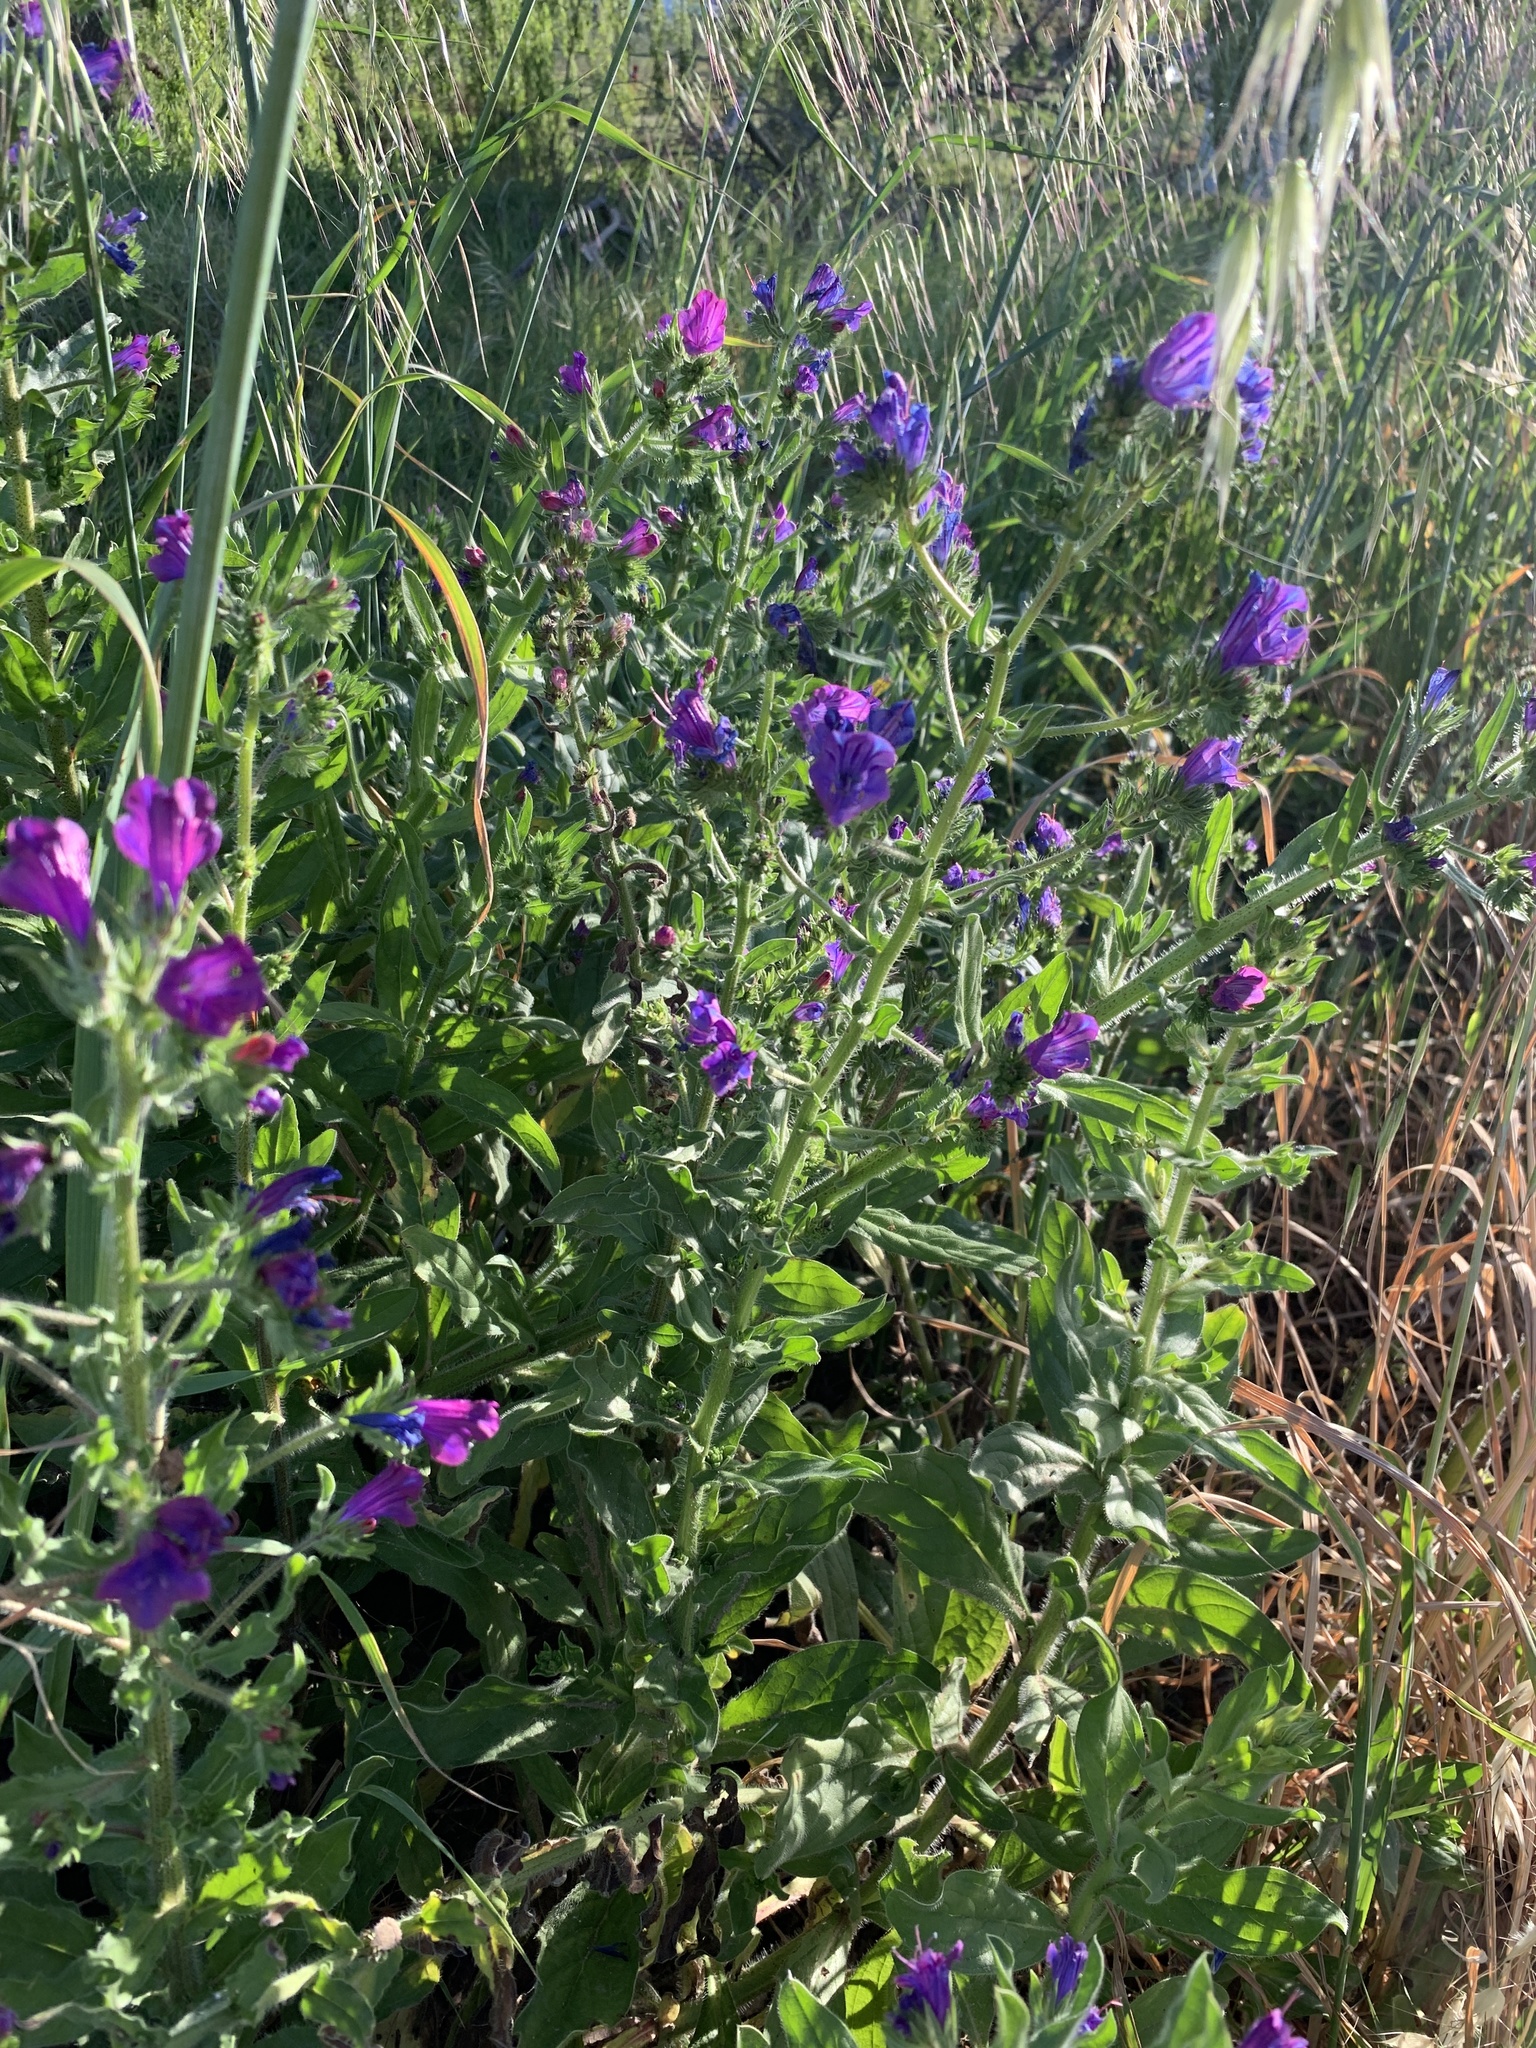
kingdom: Plantae
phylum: Tracheophyta
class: Magnoliopsida
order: Boraginales
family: Boraginaceae
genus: Echium
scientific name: Echium plantagineum
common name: Purple viper's-bugloss
